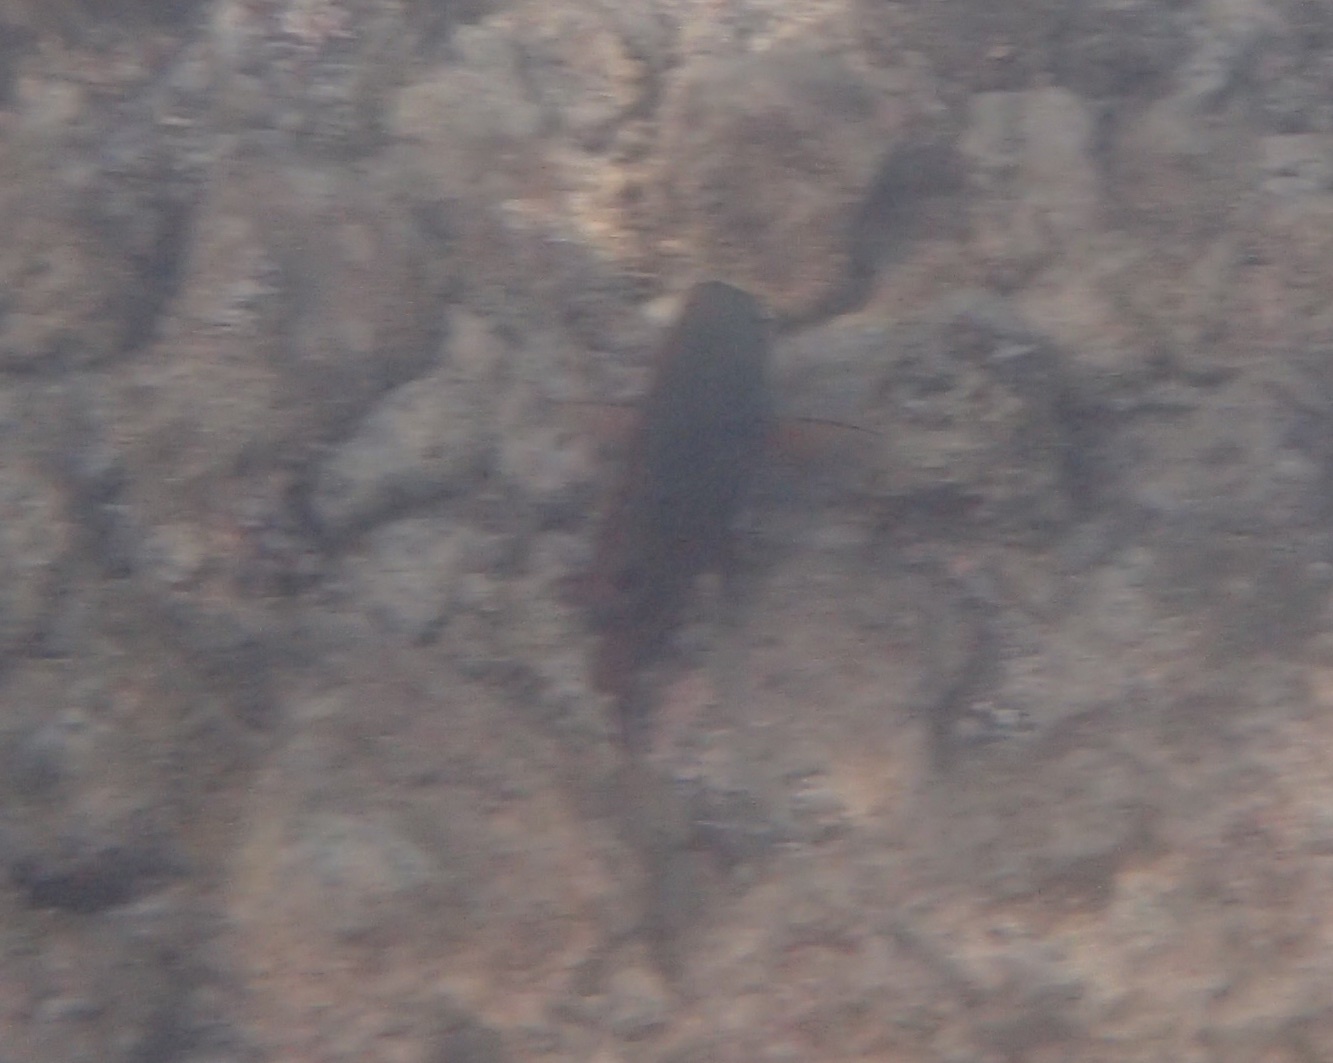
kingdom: Animalia
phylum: Chordata
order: Perciformes
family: Acanthuridae
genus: Acanthurus
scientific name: Acanthurus nigrofuscus
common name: Blackspot surgeonfish
